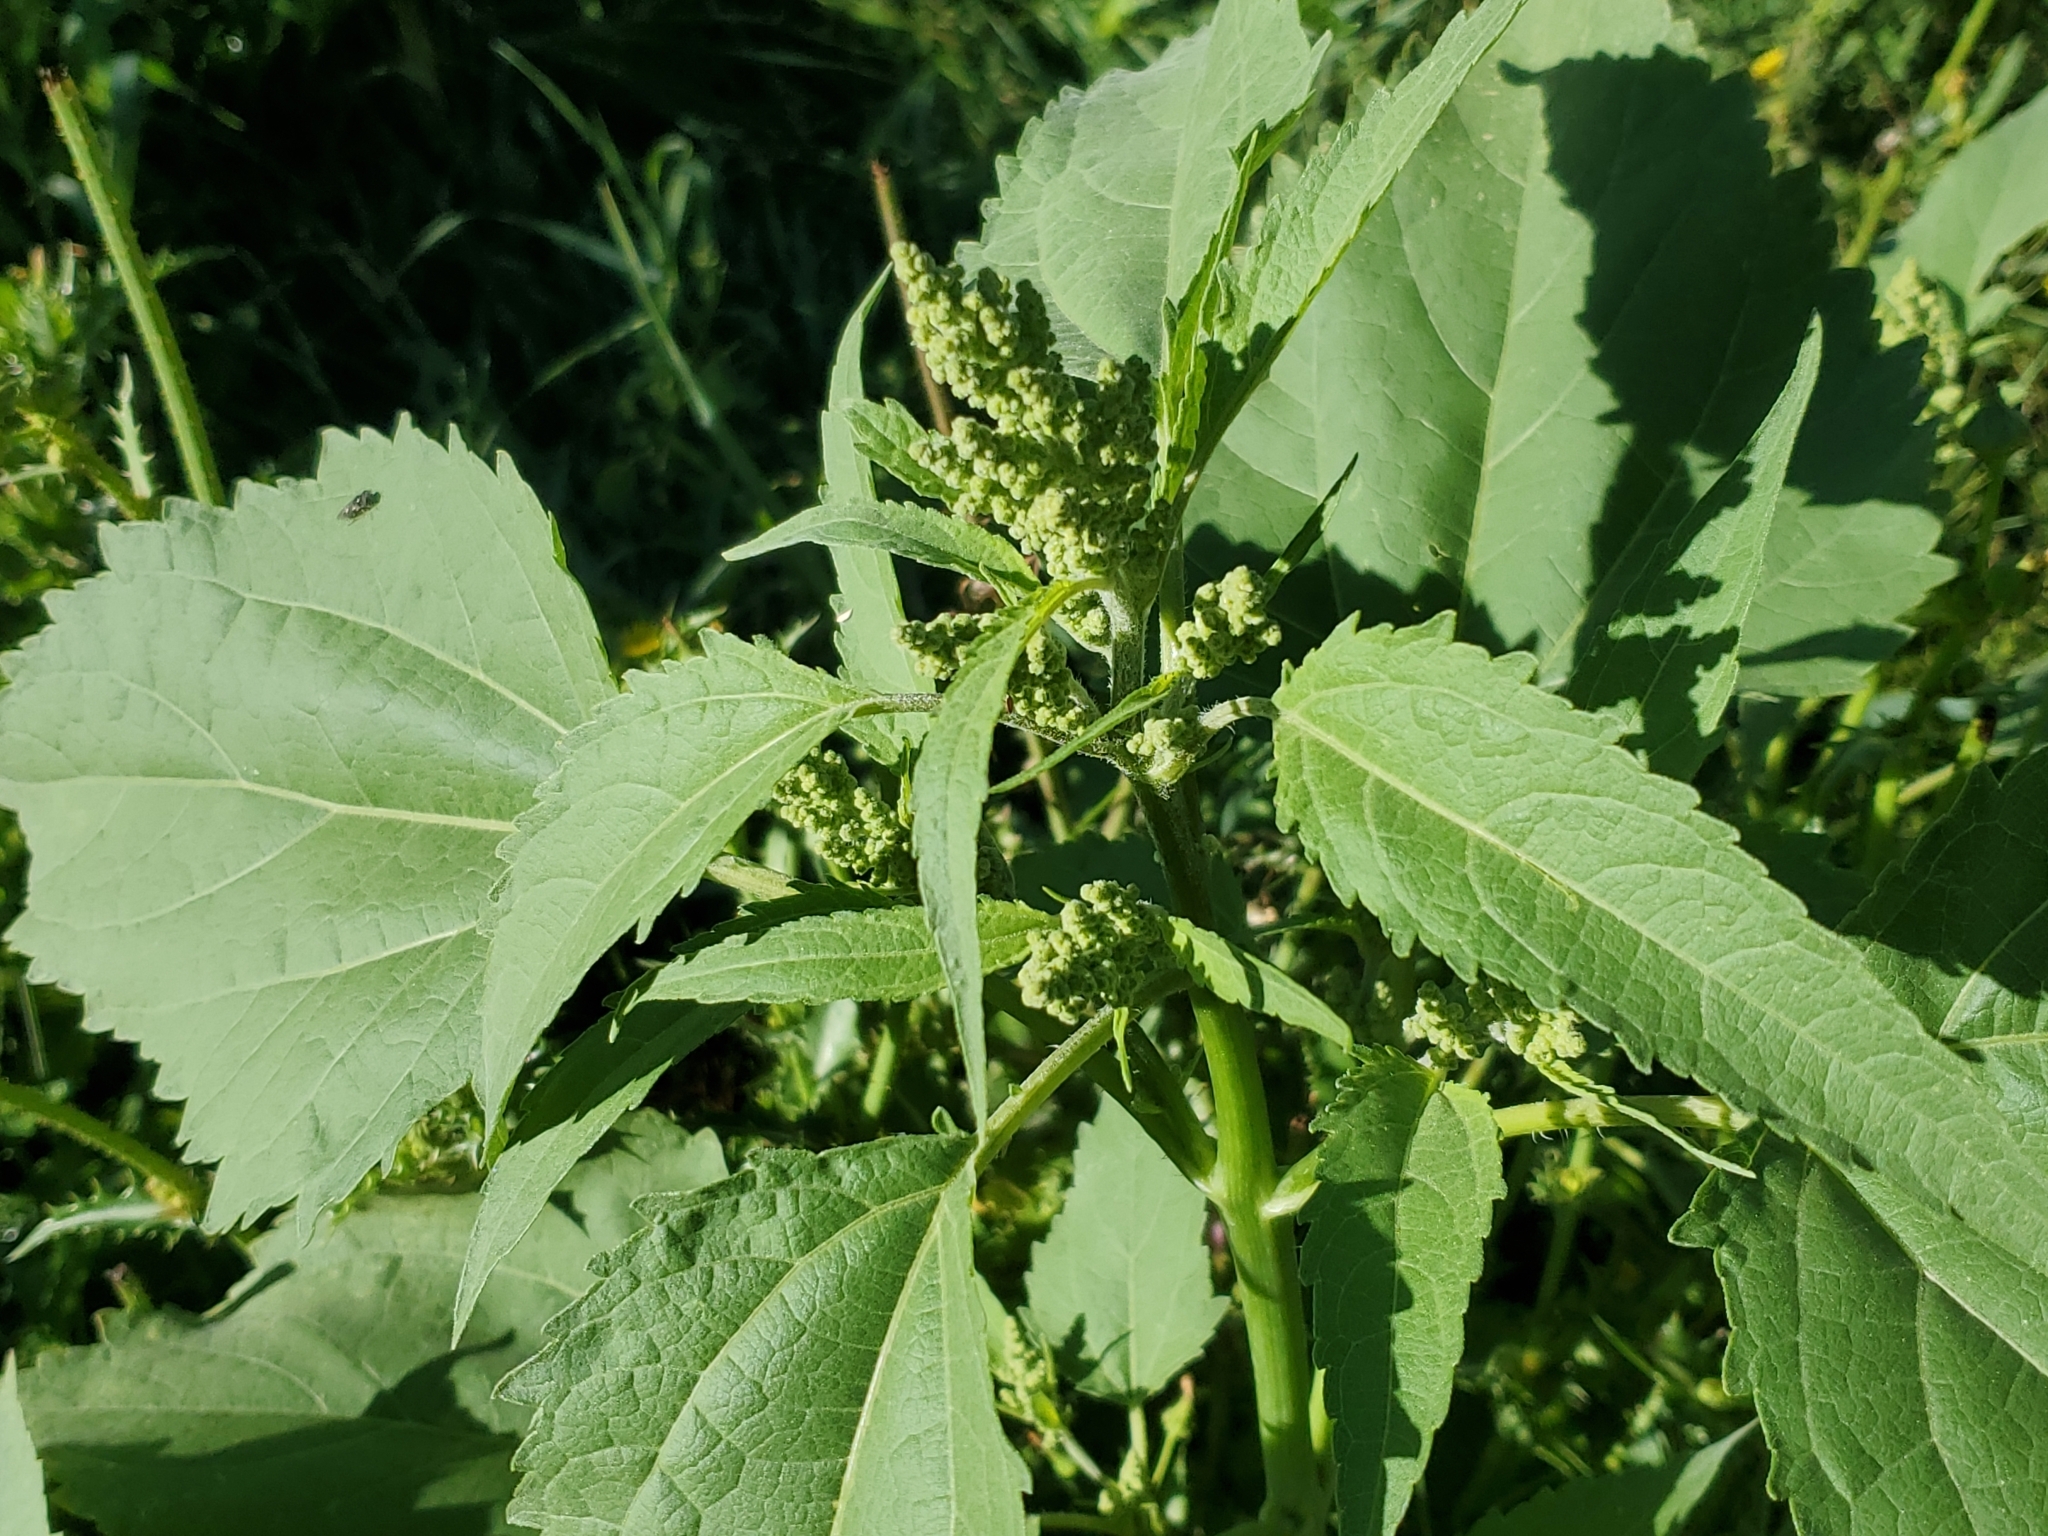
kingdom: Plantae
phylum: Tracheophyta
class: Magnoliopsida
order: Asterales
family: Asteraceae
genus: Cyclachaena
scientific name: Cyclachaena xanthiifolia
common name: Giant sumpweed
